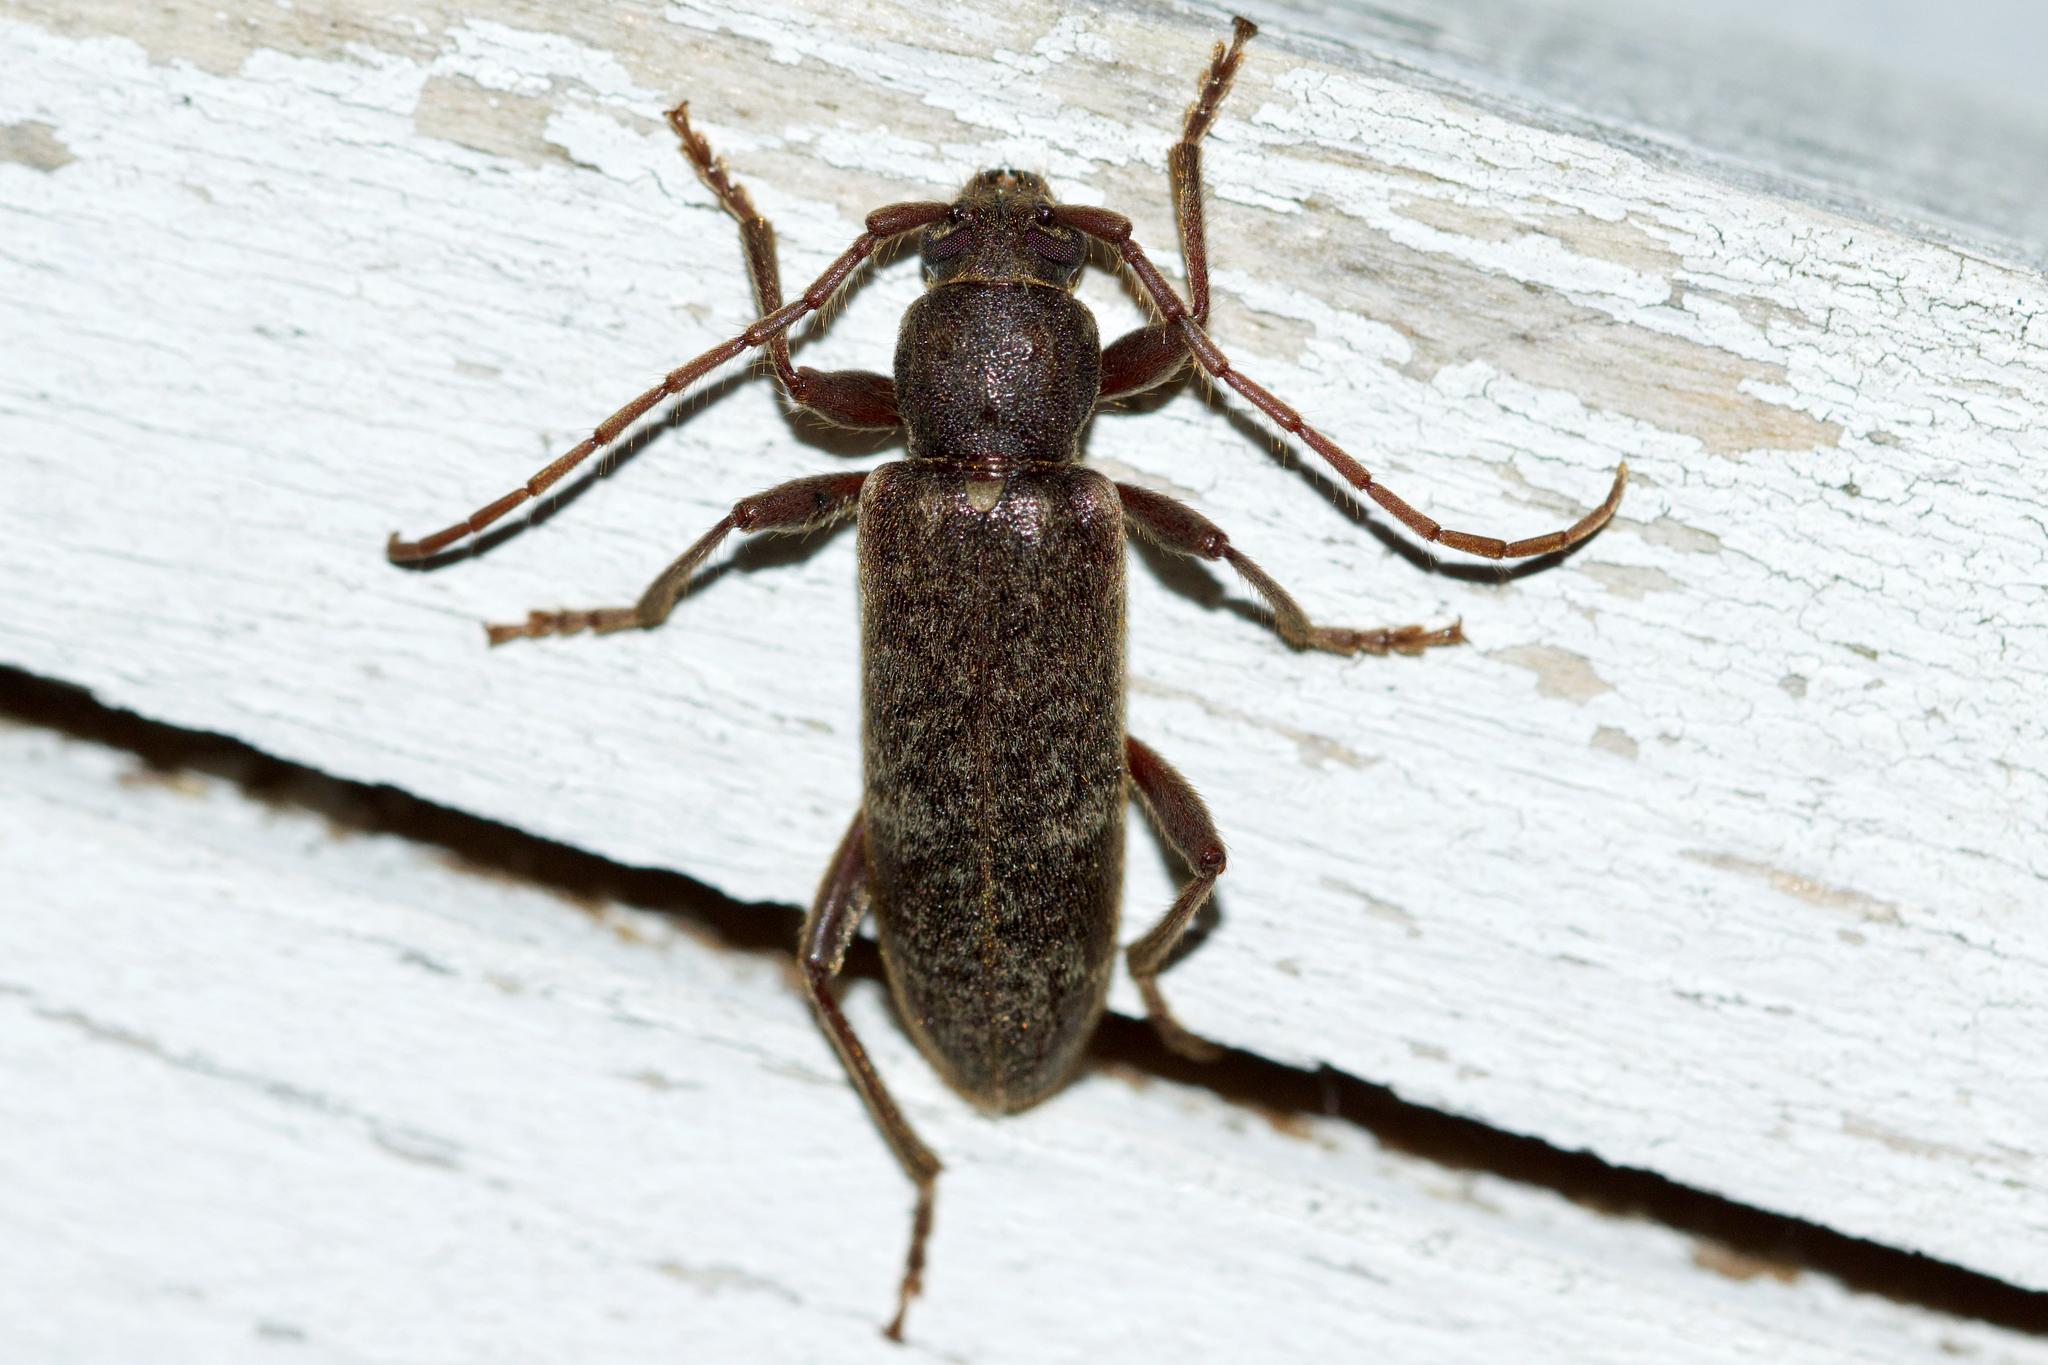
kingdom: Animalia
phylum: Arthropoda
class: Insecta
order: Coleoptera
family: Cerambycidae
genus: Trichoferus
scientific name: Trichoferus campestris
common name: Velvet long horned beetle
